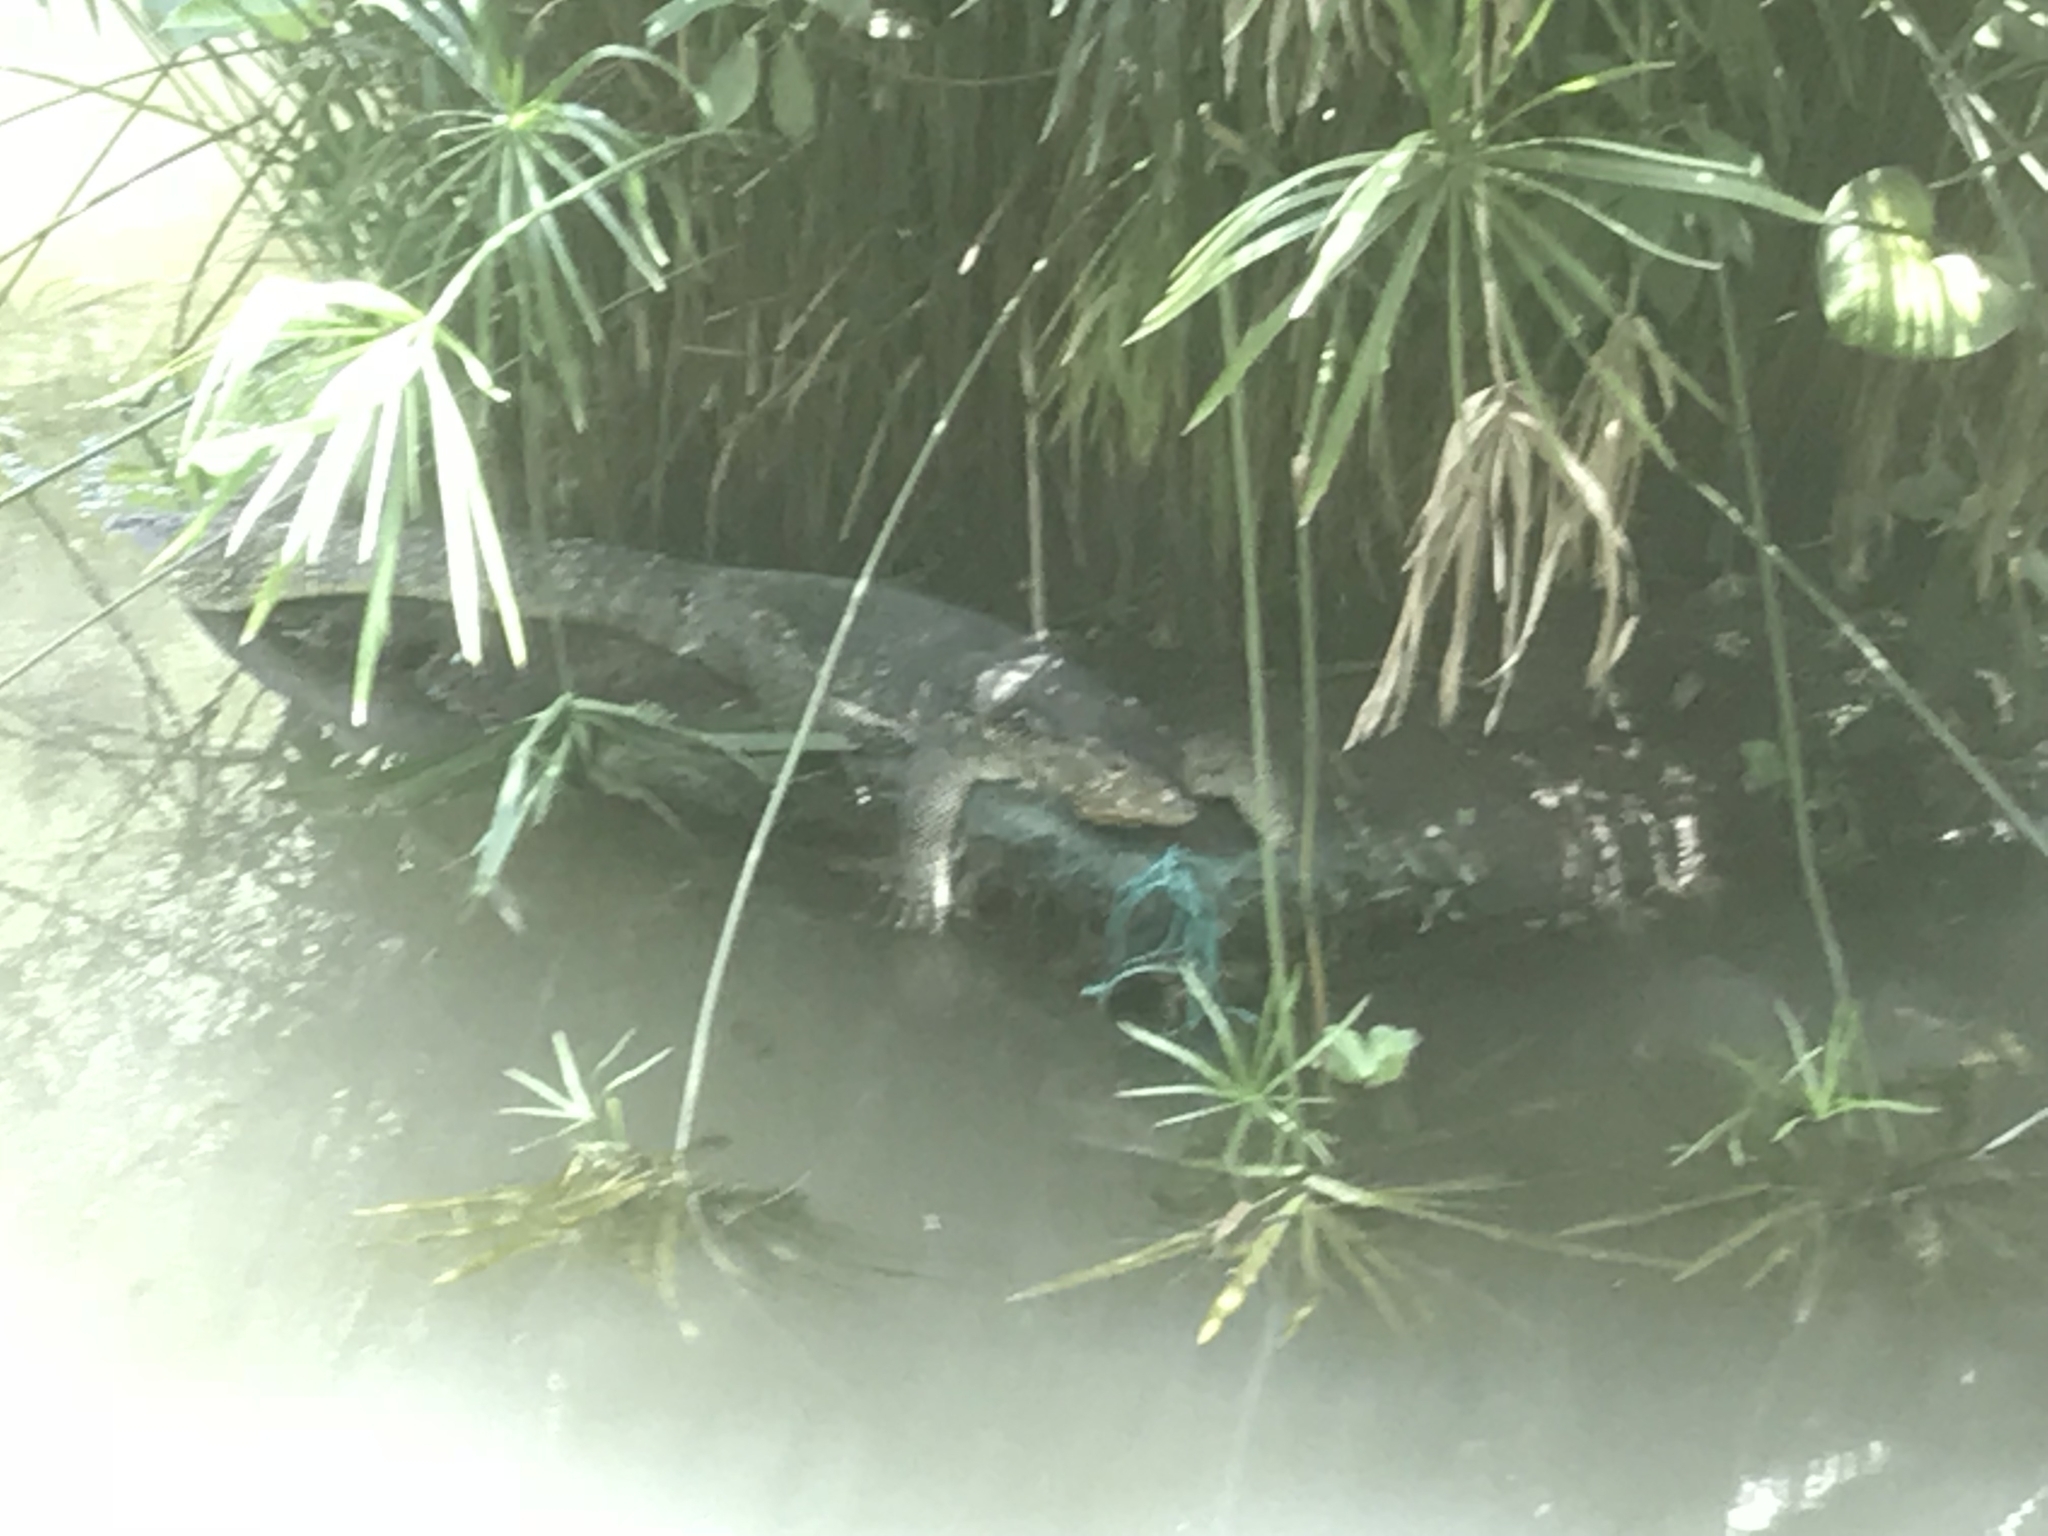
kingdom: Animalia
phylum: Chordata
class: Squamata
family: Varanidae
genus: Varanus
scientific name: Varanus salvator
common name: Common water monitor
